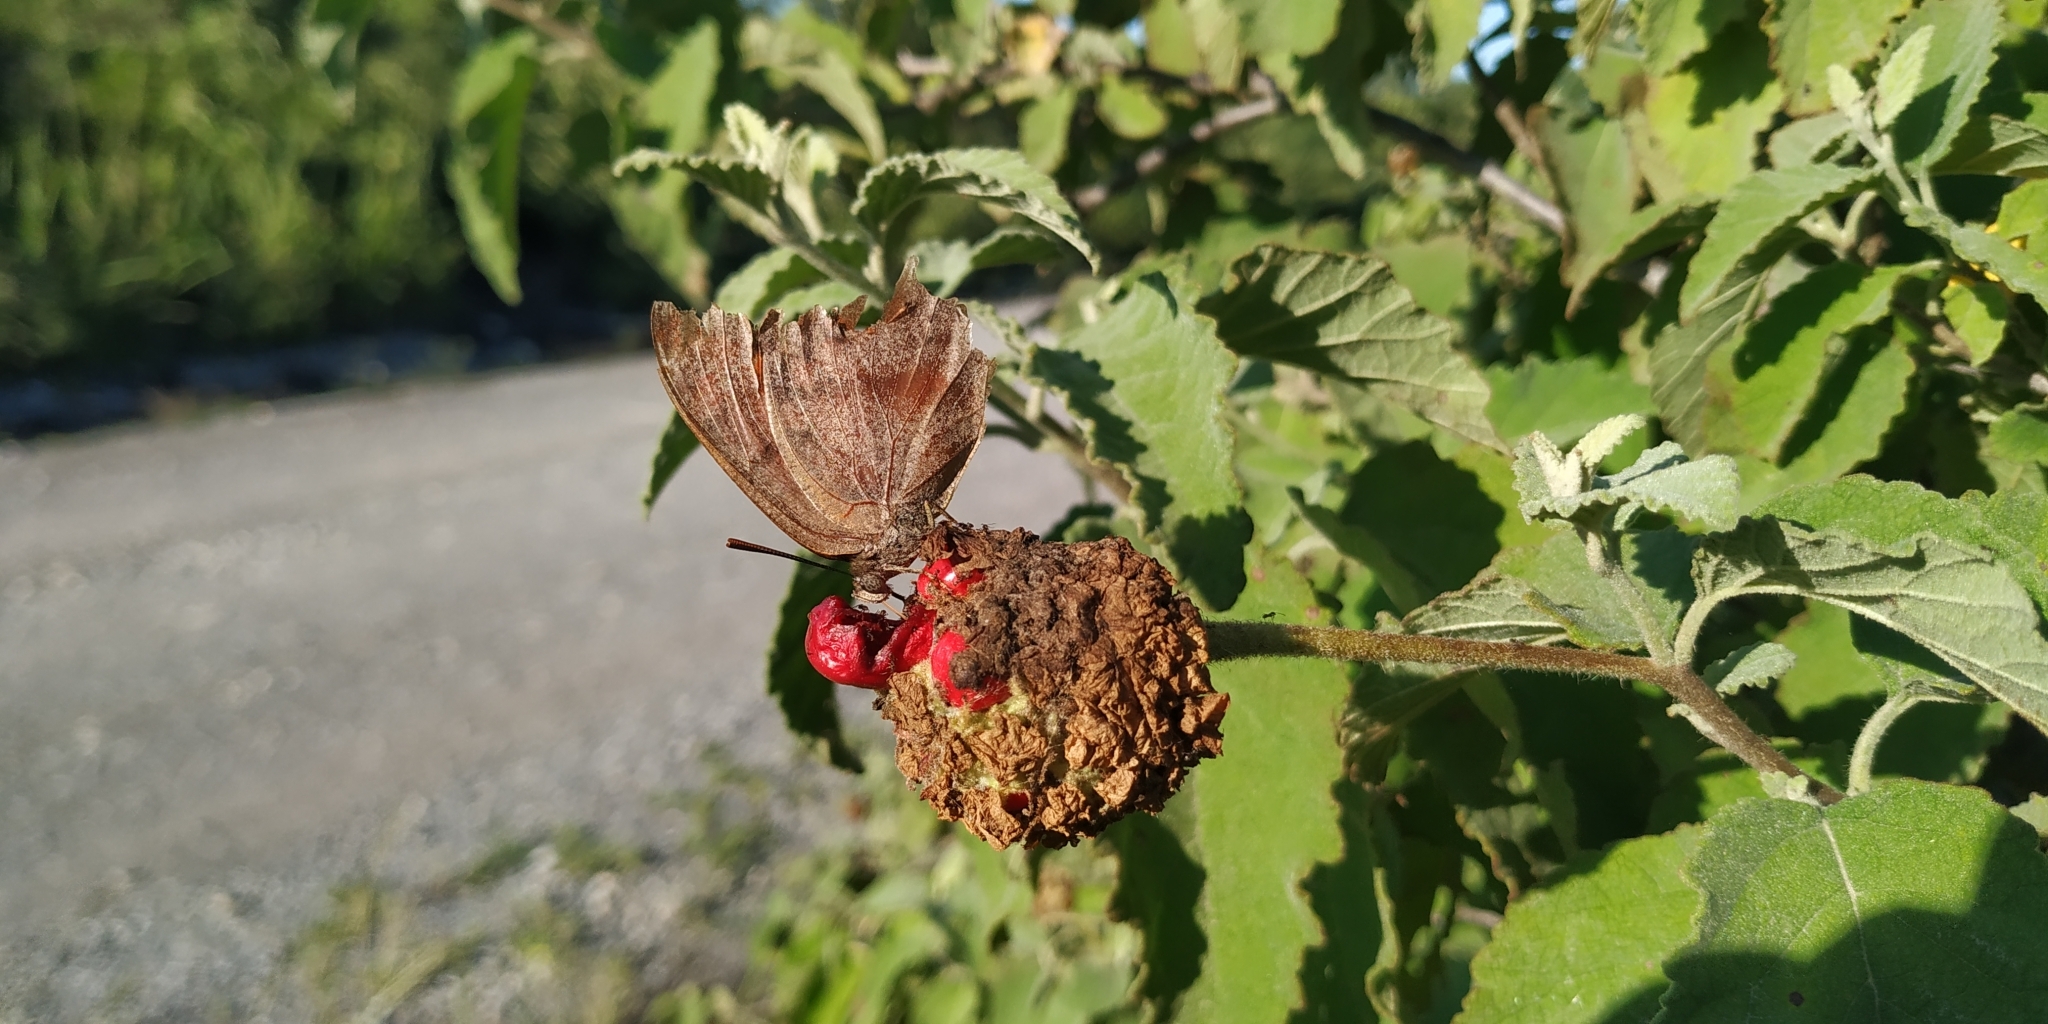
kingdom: Animalia
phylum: Arthropoda
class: Insecta
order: Lepidoptera
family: Nymphalidae
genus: Anaea
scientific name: Anaea aidea
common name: Tropical leafwing
